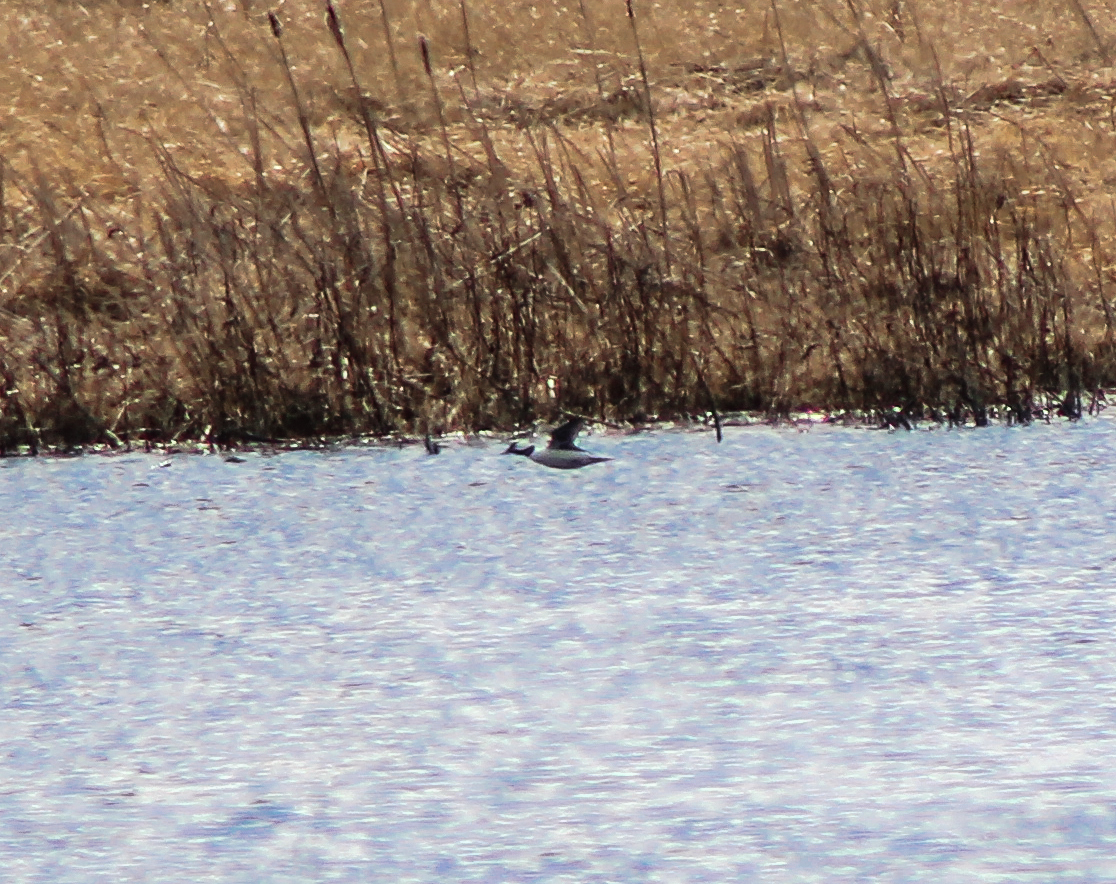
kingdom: Animalia
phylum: Chordata
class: Aves
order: Anseriformes
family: Anatidae
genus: Bucephala
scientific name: Bucephala albeola
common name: Bufflehead
